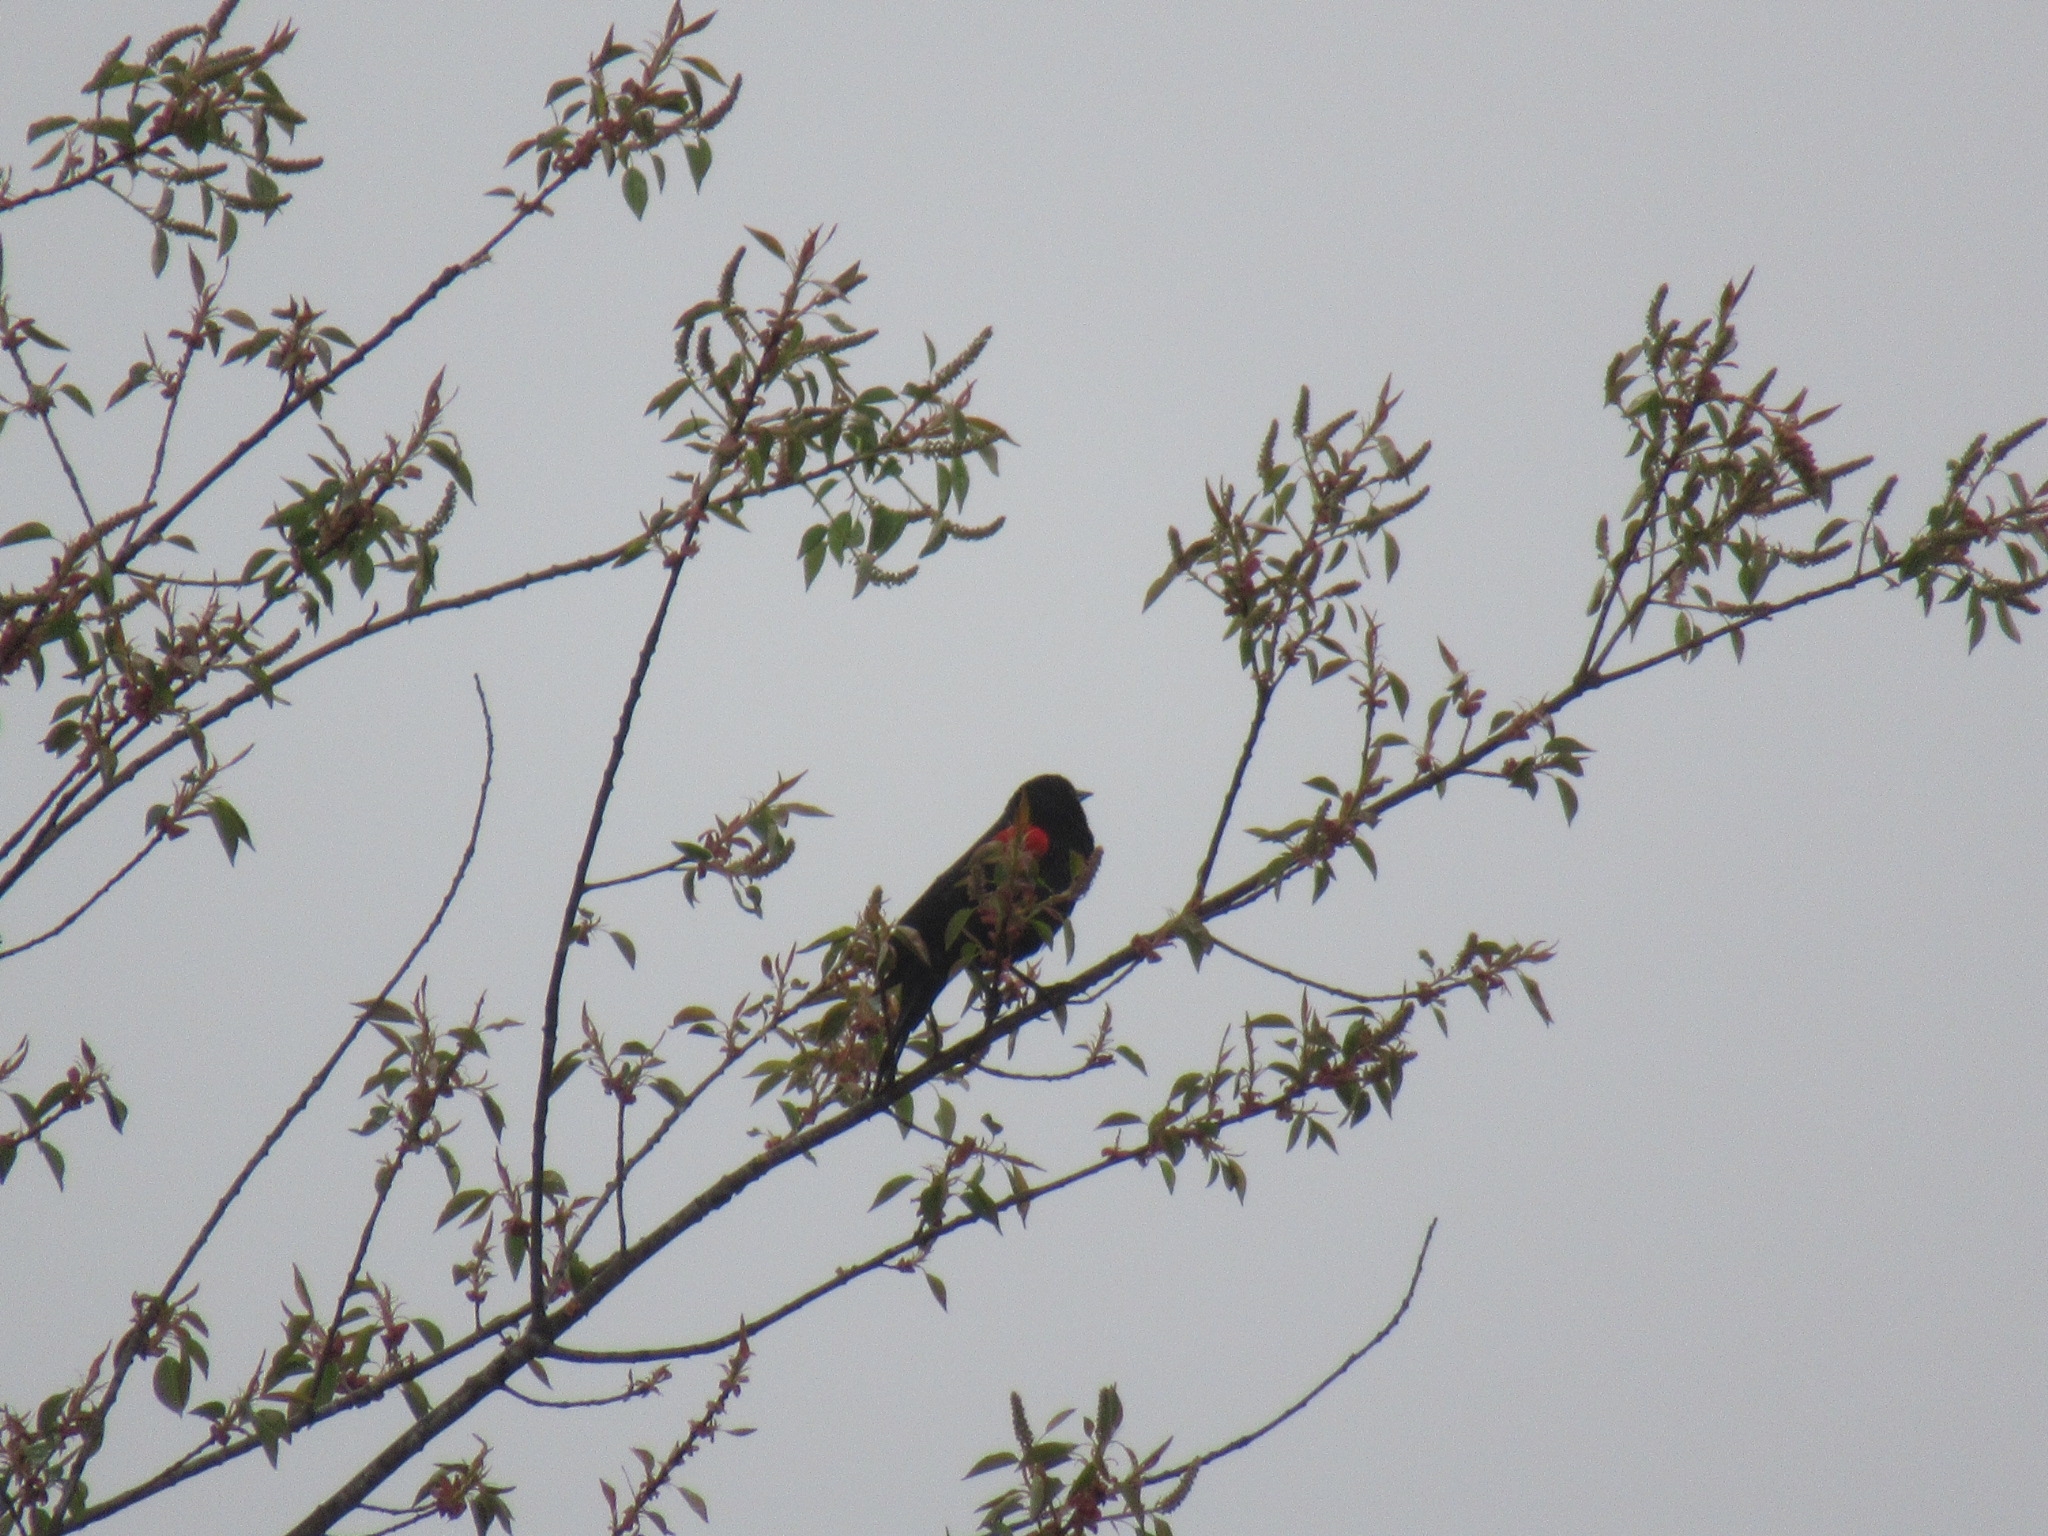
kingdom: Animalia
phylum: Chordata
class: Aves
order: Passeriformes
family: Icteridae
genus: Agelaius
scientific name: Agelaius phoeniceus
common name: Red-winged blackbird
